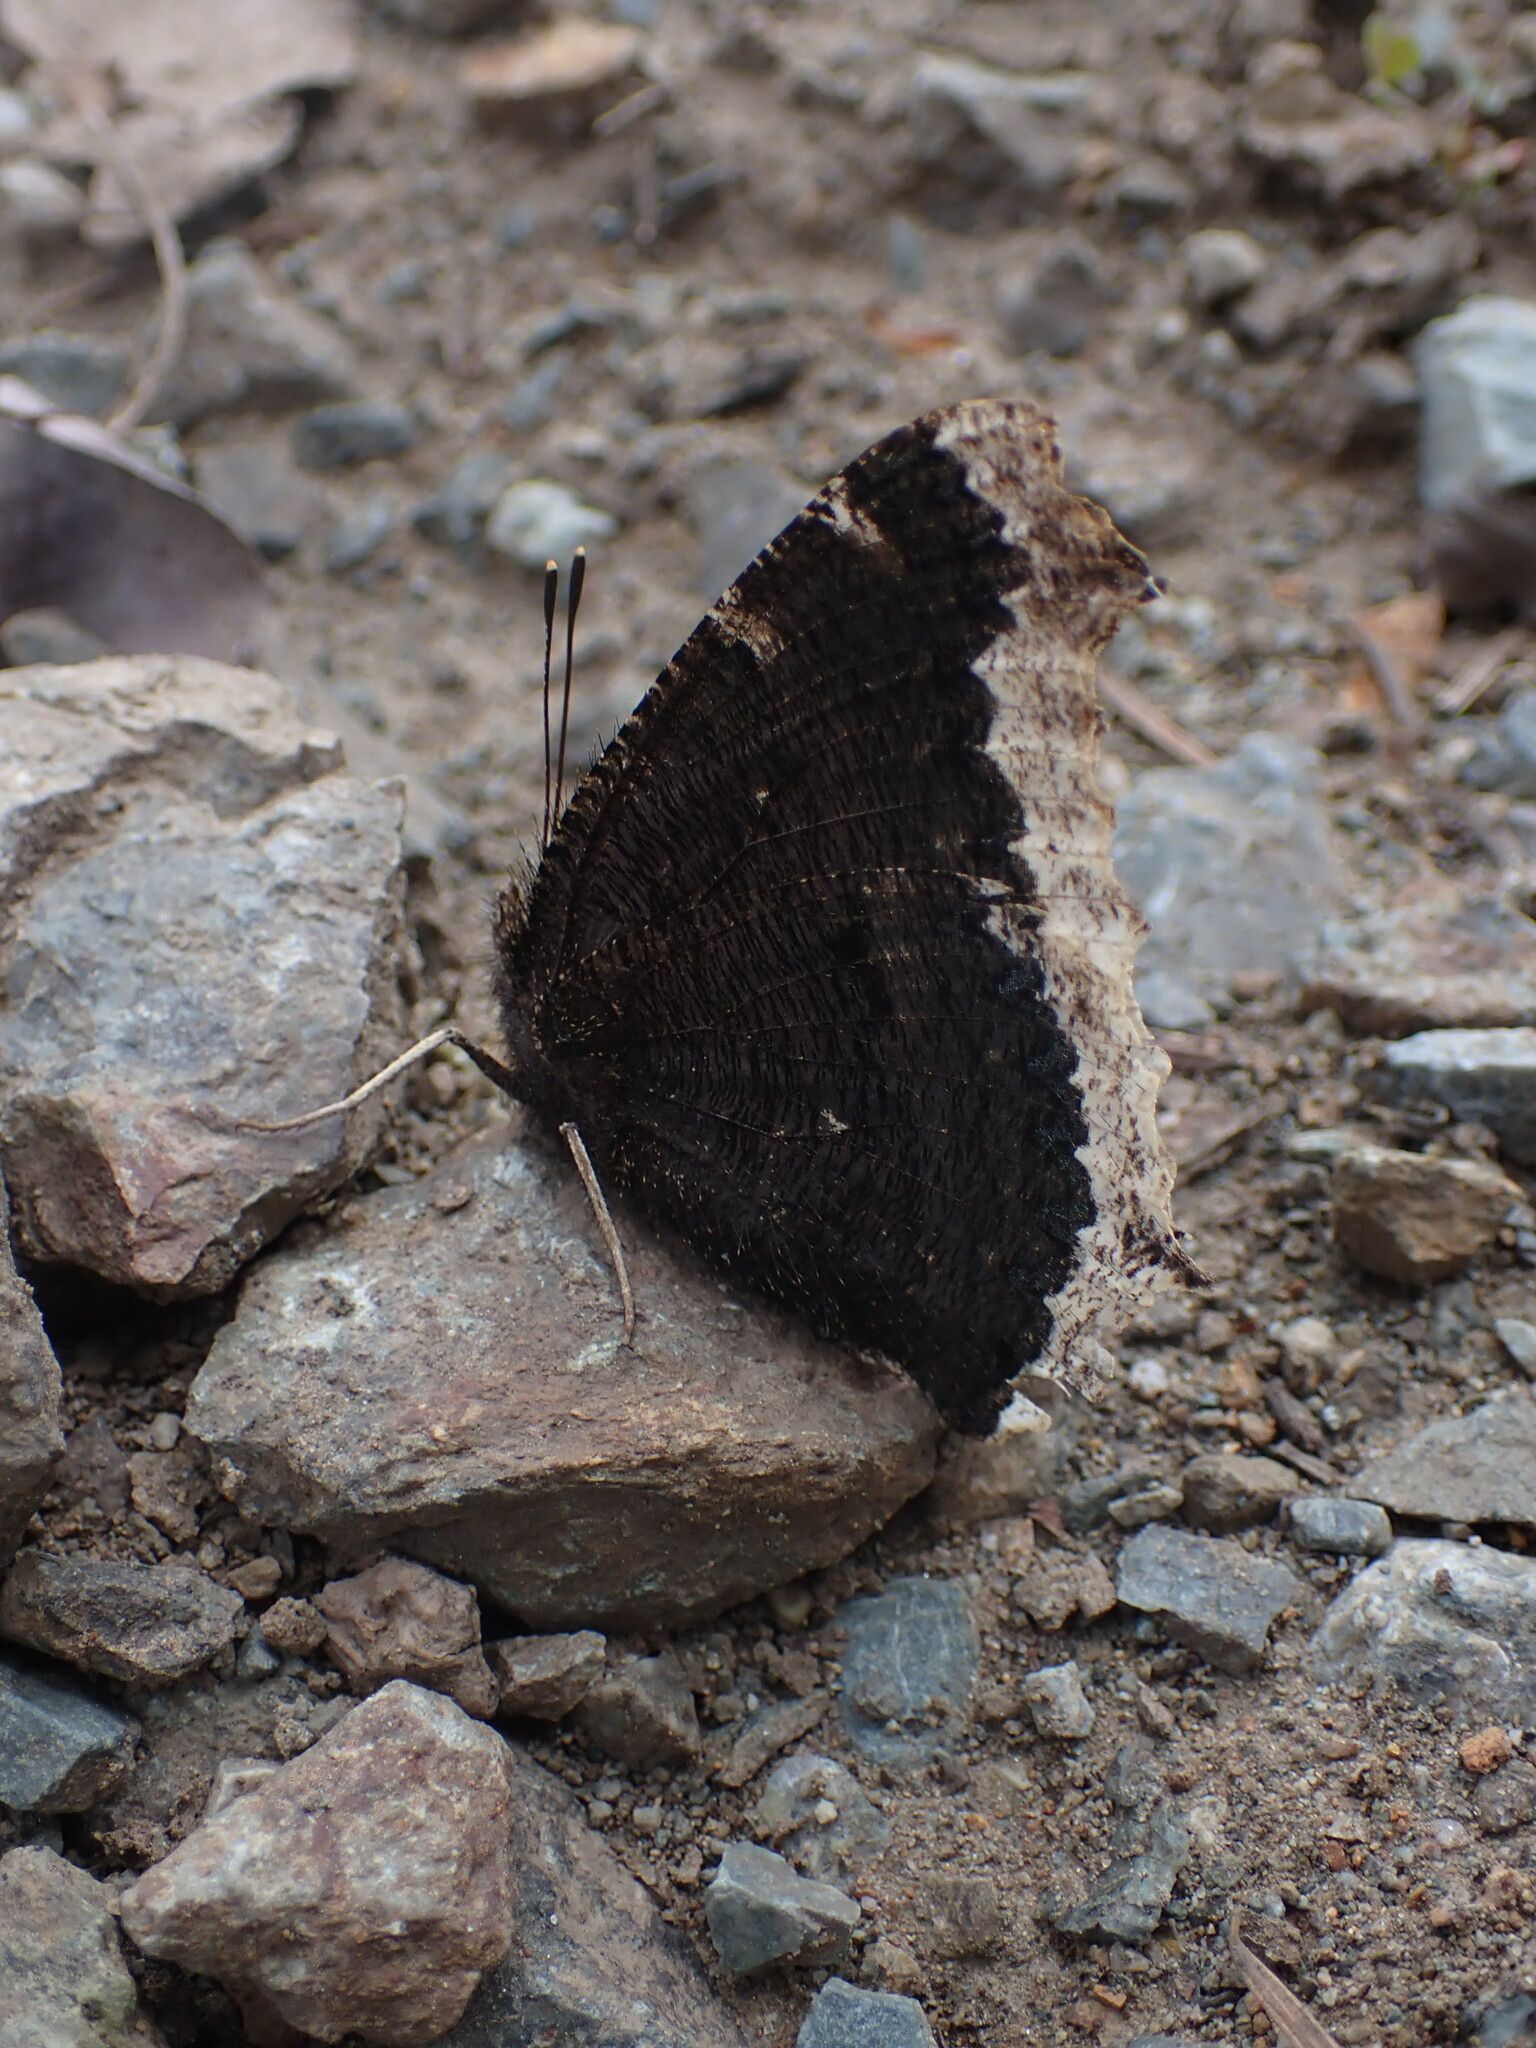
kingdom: Animalia
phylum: Arthropoda
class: Insecta
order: Lepidoptera
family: Nymphalidae
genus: Nymphalis
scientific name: Nymphalis antiopa
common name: Camberwell beauty
